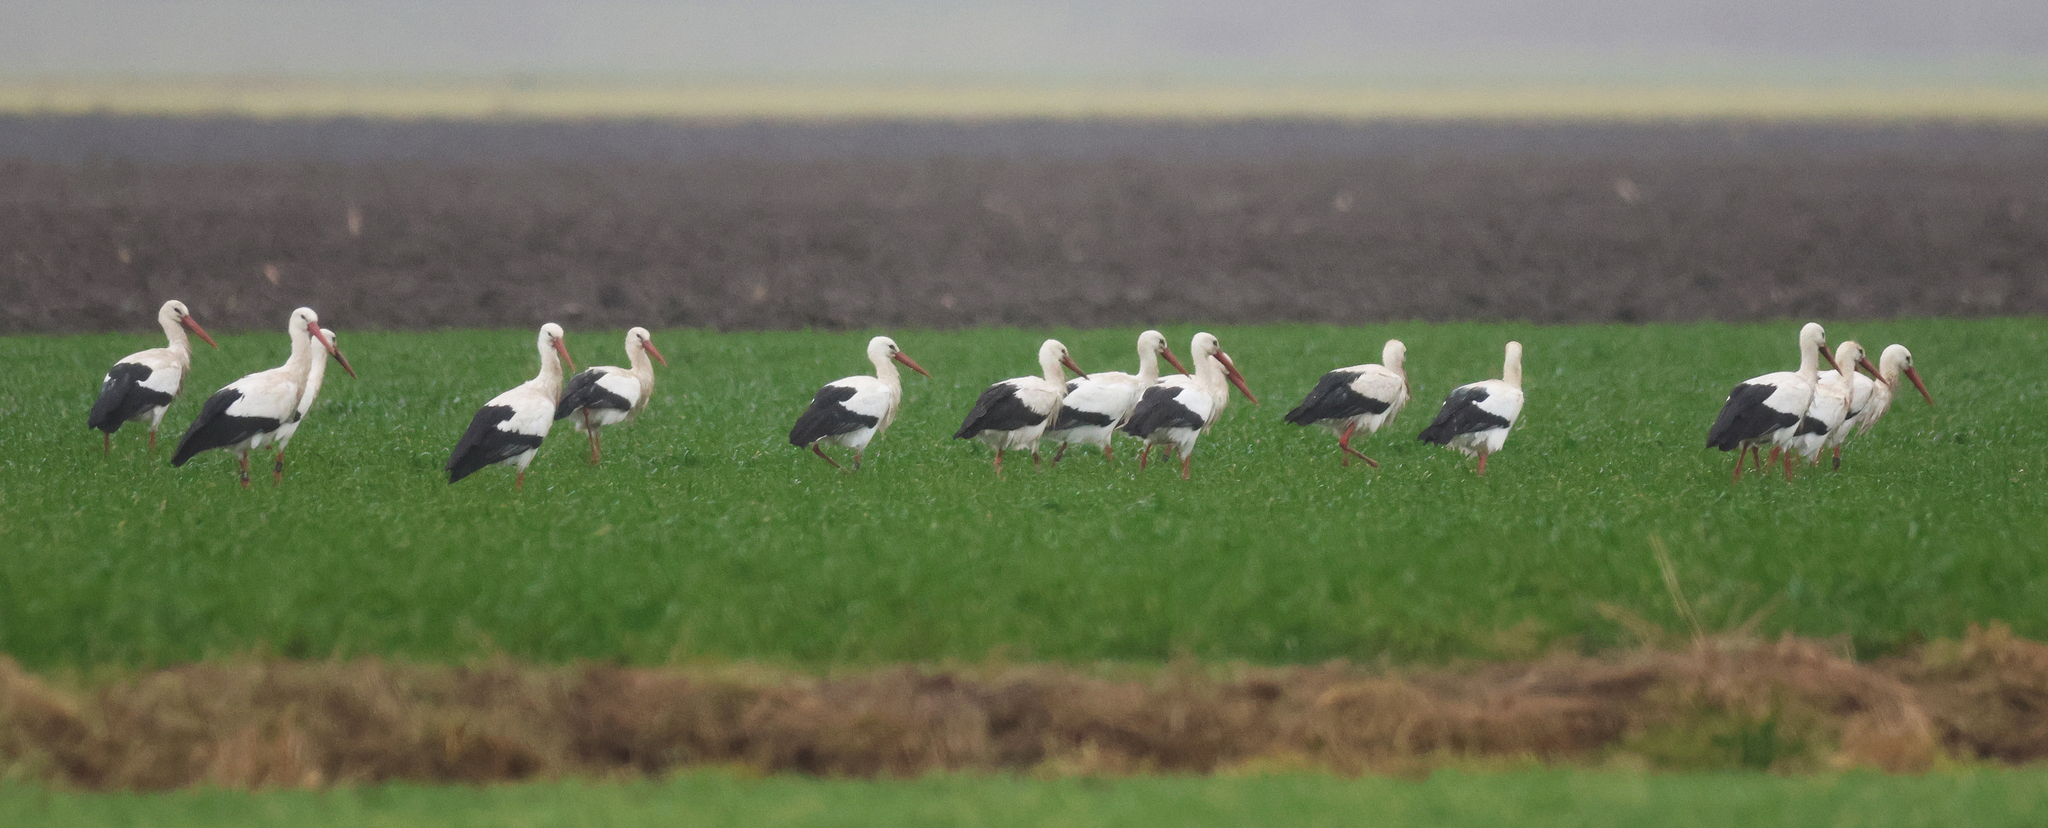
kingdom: Animalia
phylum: Chordata
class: Aves
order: Ciconiiformes
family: Ciconiidae
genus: Ciconia
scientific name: Ciconia ciconia
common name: White stork
